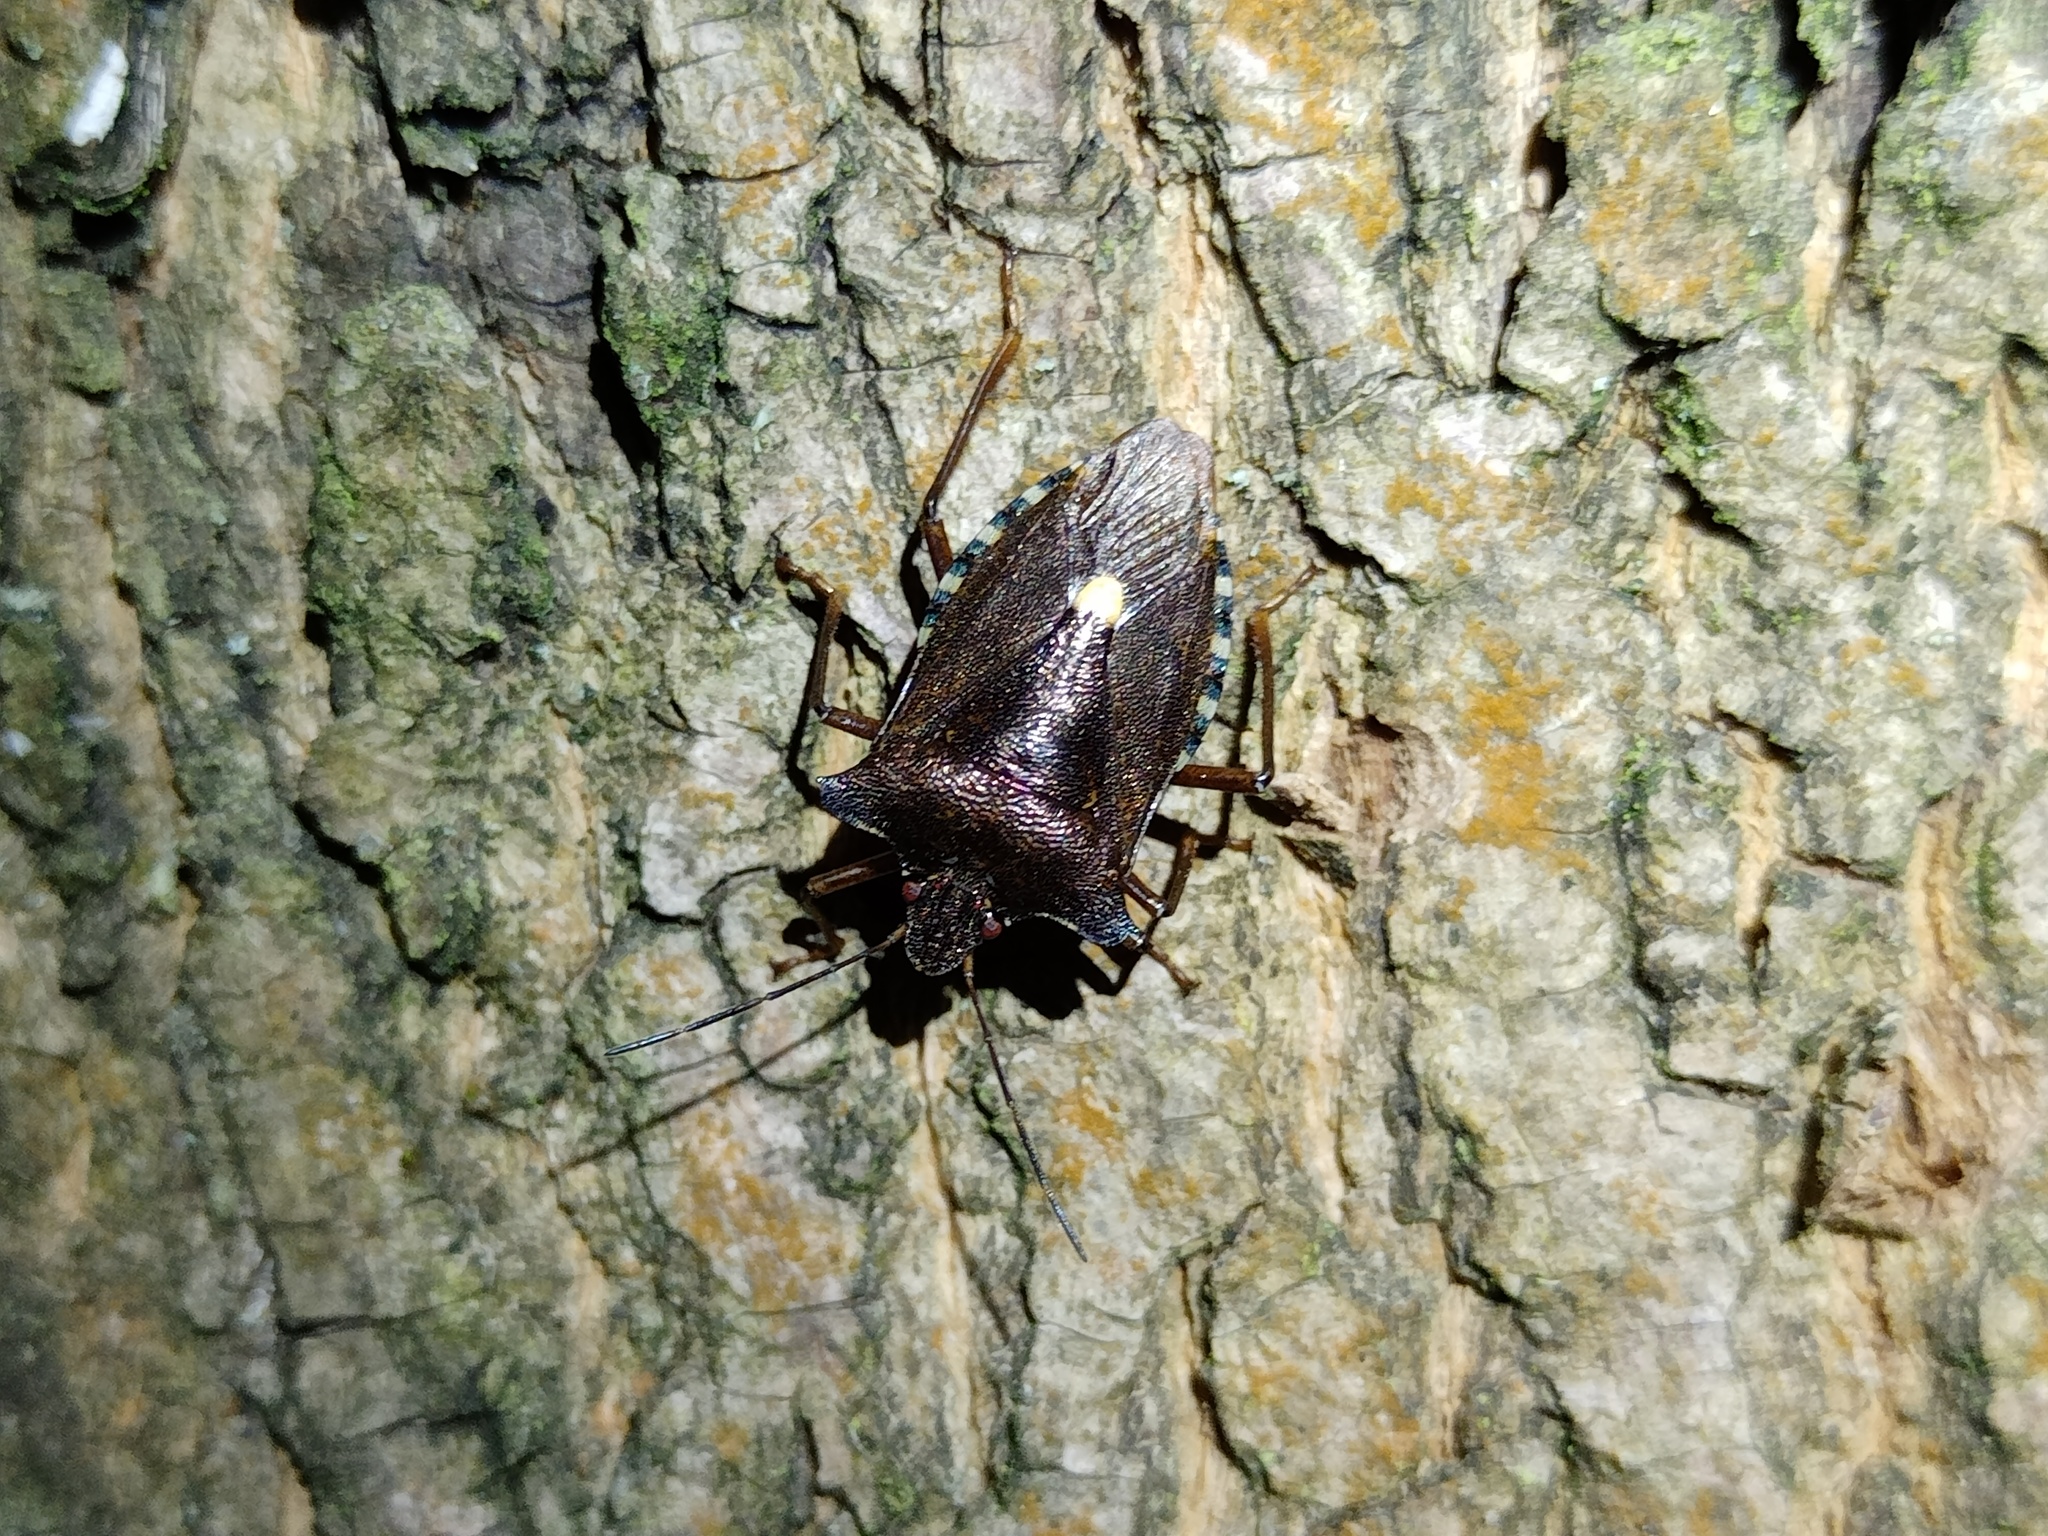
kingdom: Animalia
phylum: Arthropoda
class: Insecta
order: Hemiptera
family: Pentatomidae
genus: Pentatoma
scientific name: Pentatoma rufipes
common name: Forest bug
